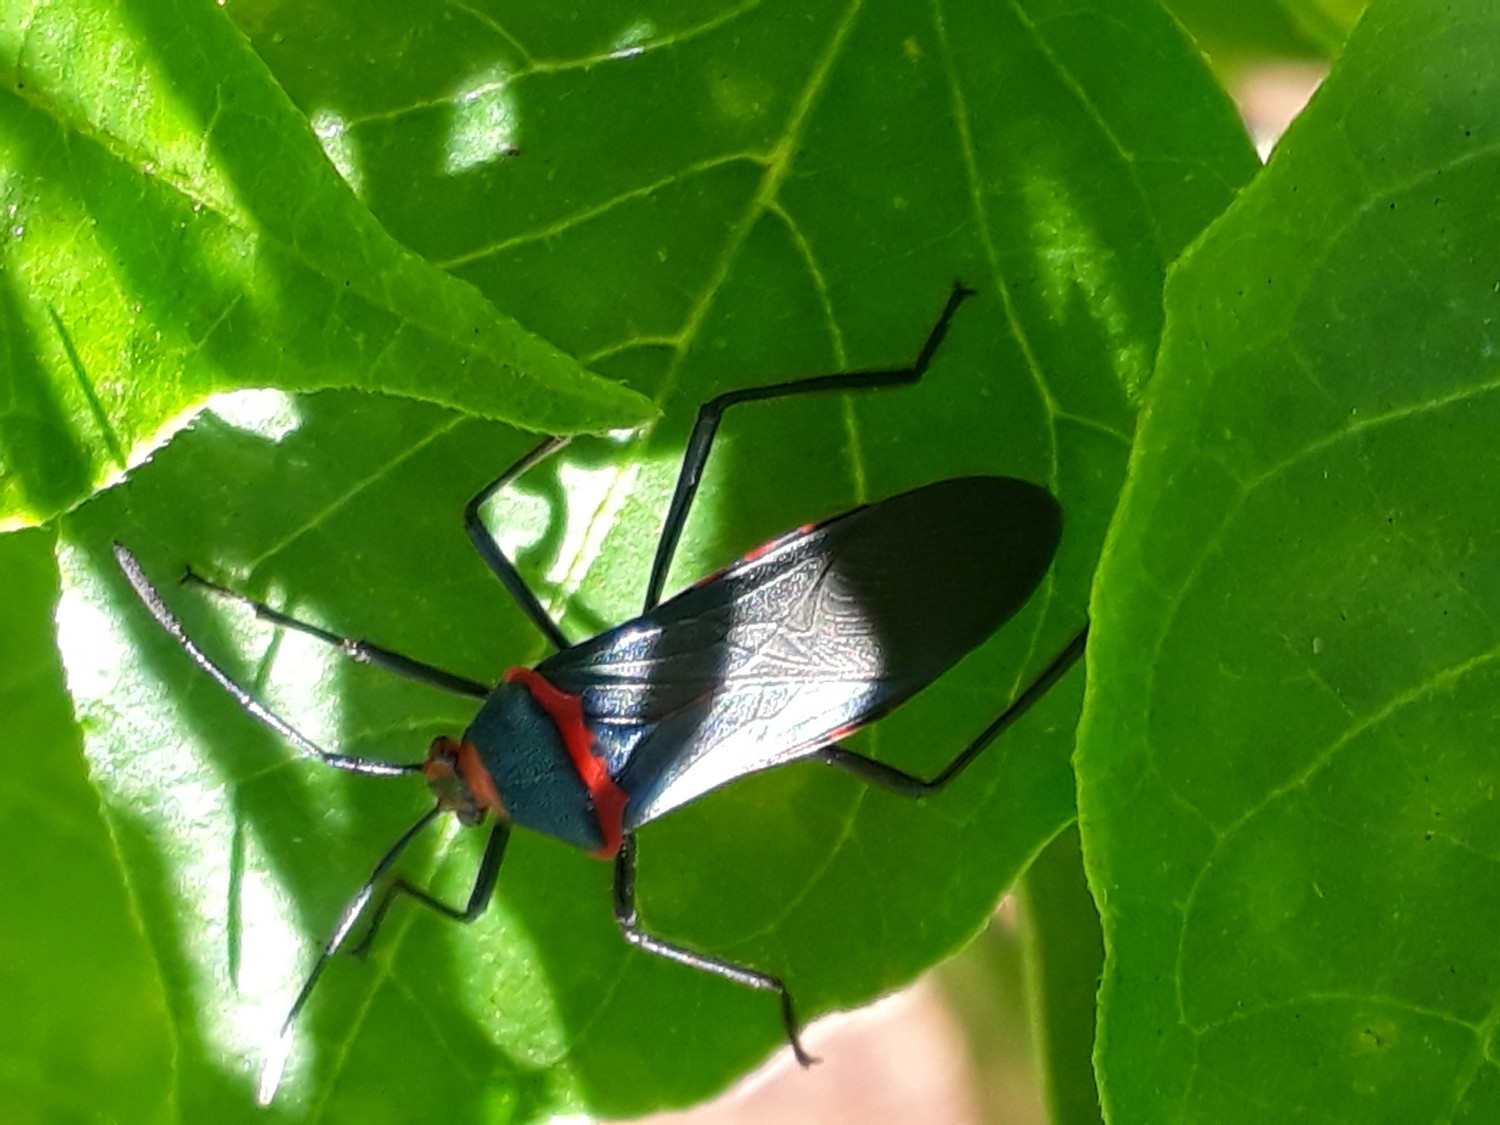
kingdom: Animalia
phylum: Arthropoda
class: Insecta
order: Hemiptera
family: Coreidae
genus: Sphictyrtus
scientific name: Sphictyrtus chrysis
